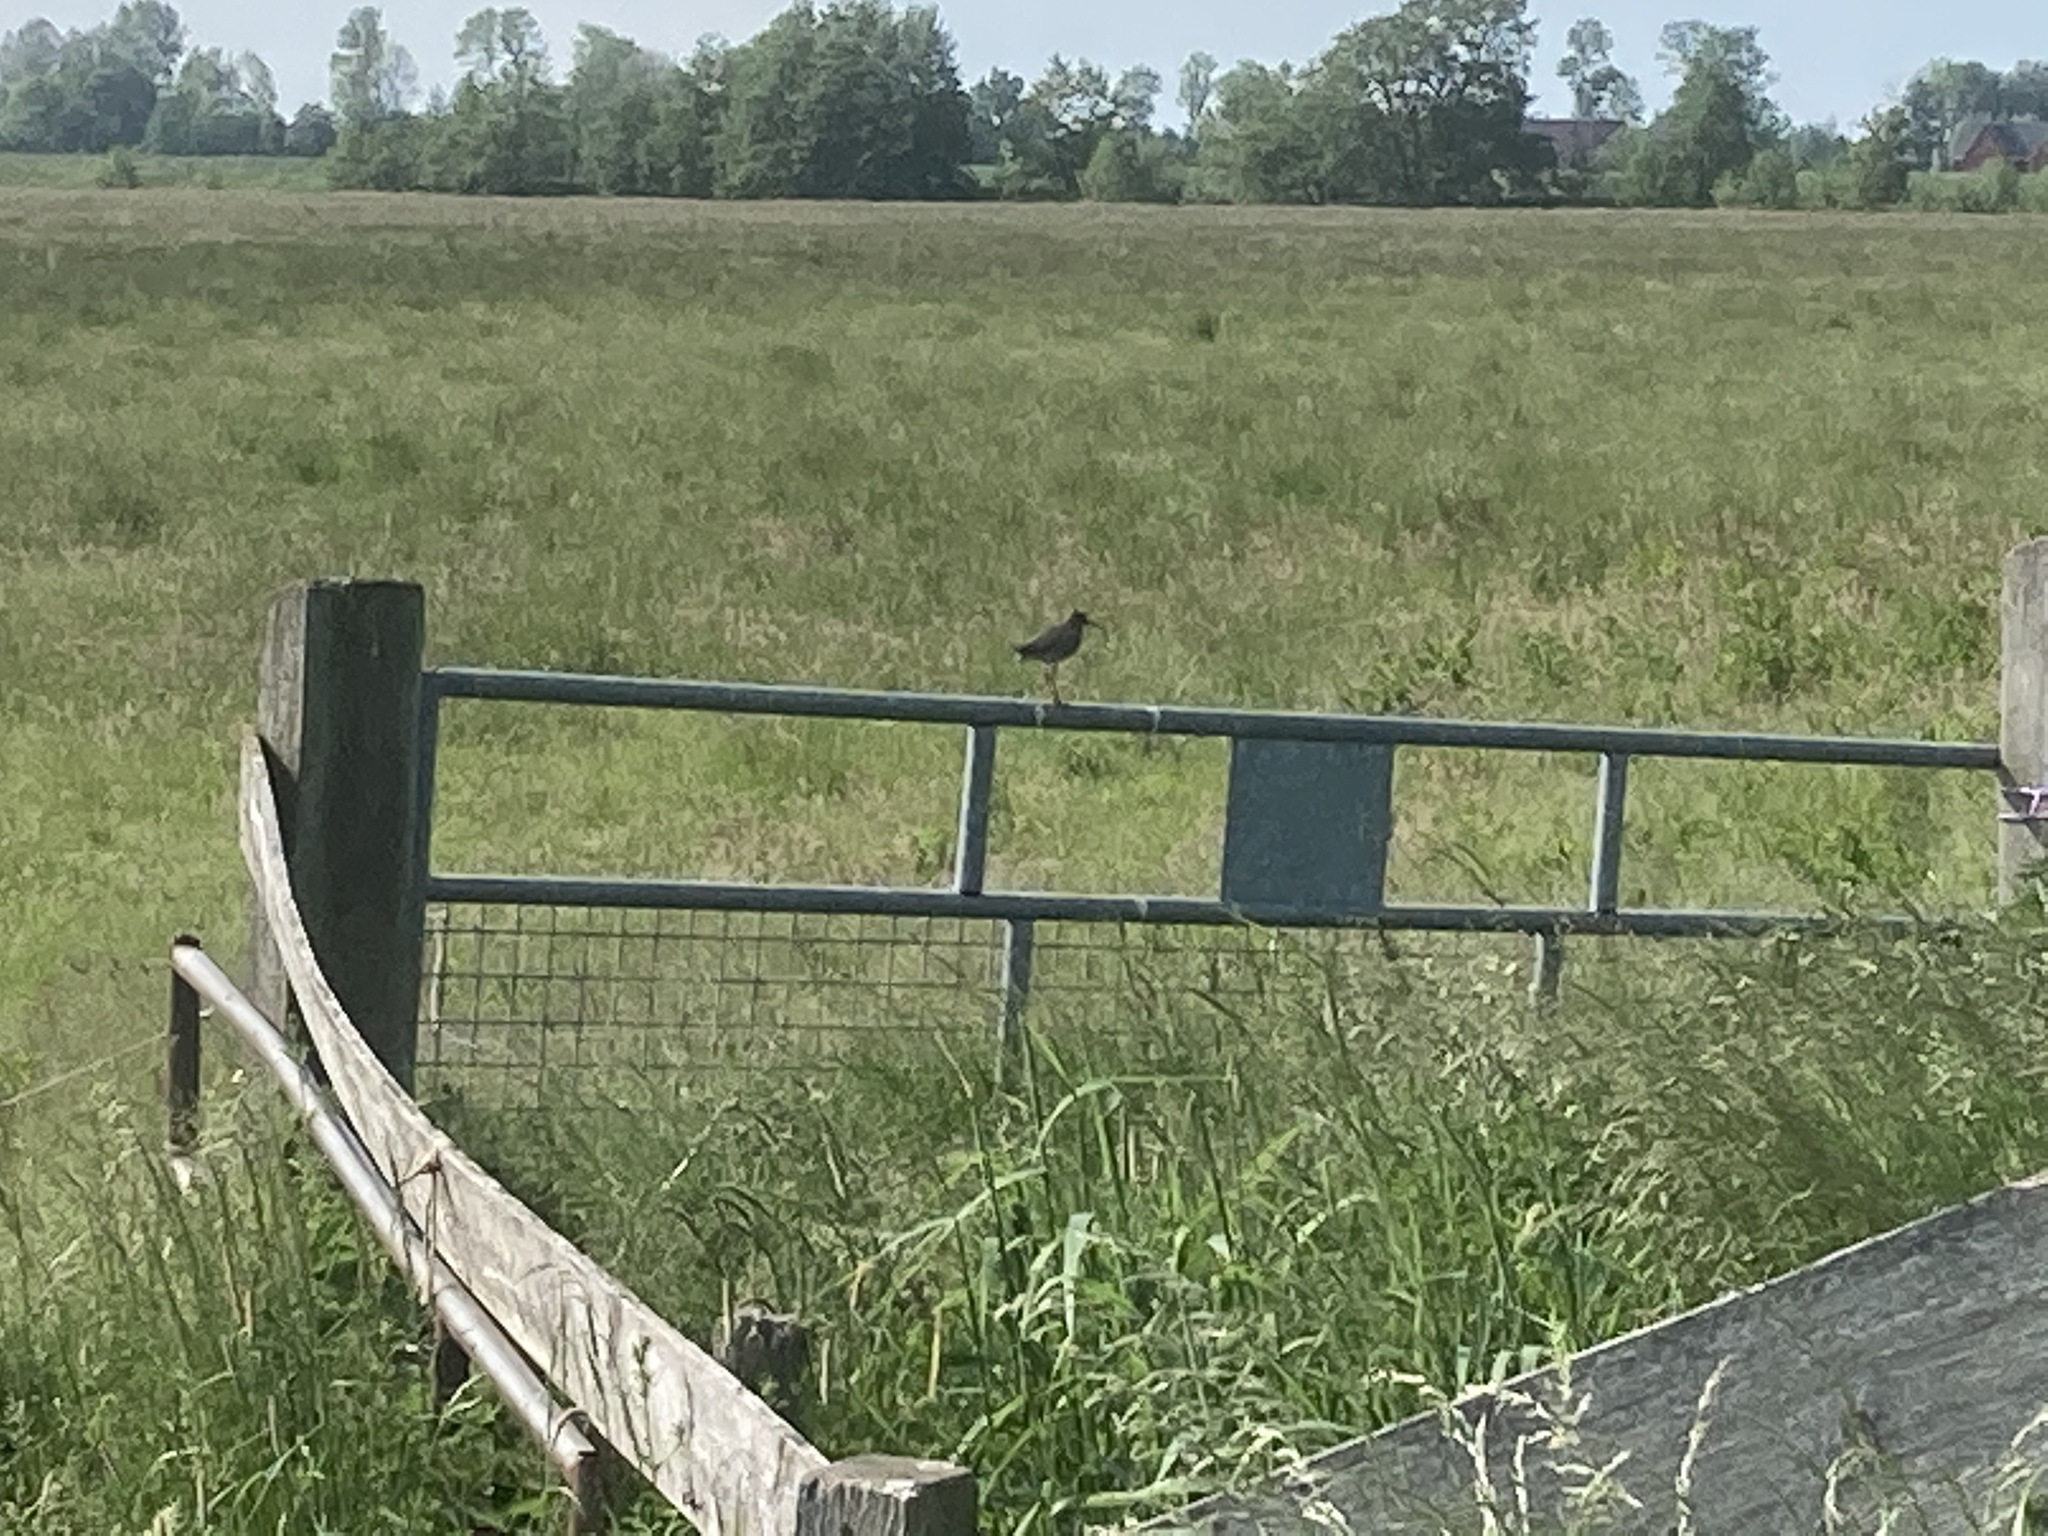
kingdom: Animalia
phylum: Chordata
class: Aves
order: Charadriiformes
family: Scolopacidae
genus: Tringa
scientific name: Tringa totanus
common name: Common redshank
